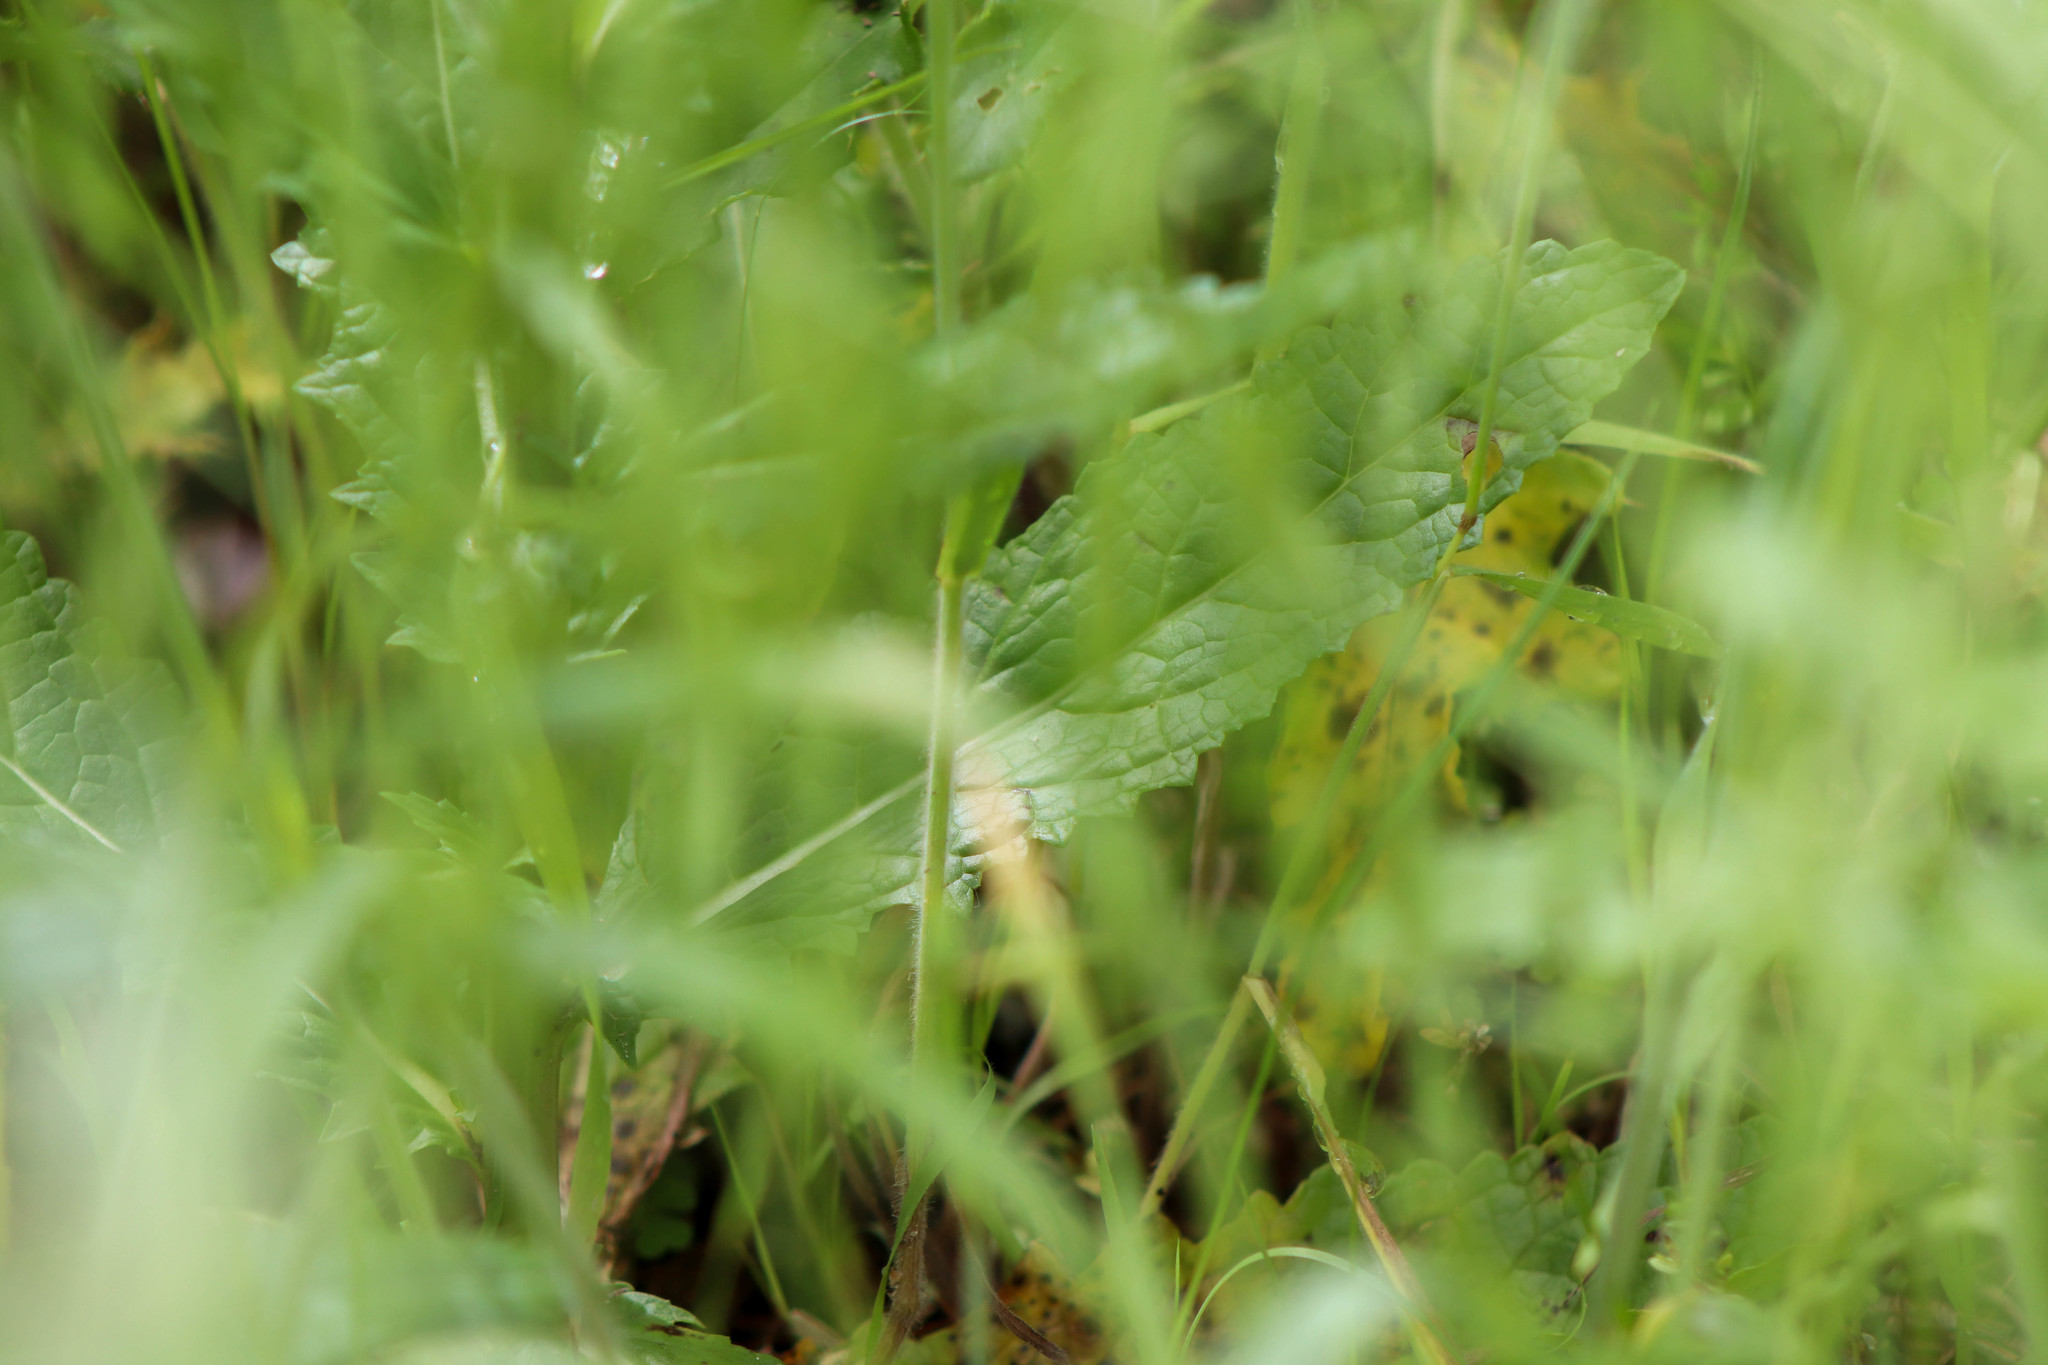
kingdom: Plantae
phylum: Tracheophyta
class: Magnoliopsida
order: Lamiales
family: Scrophulariaceae
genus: Verbascum
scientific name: Verbascum blattaria
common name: Moth mullein
